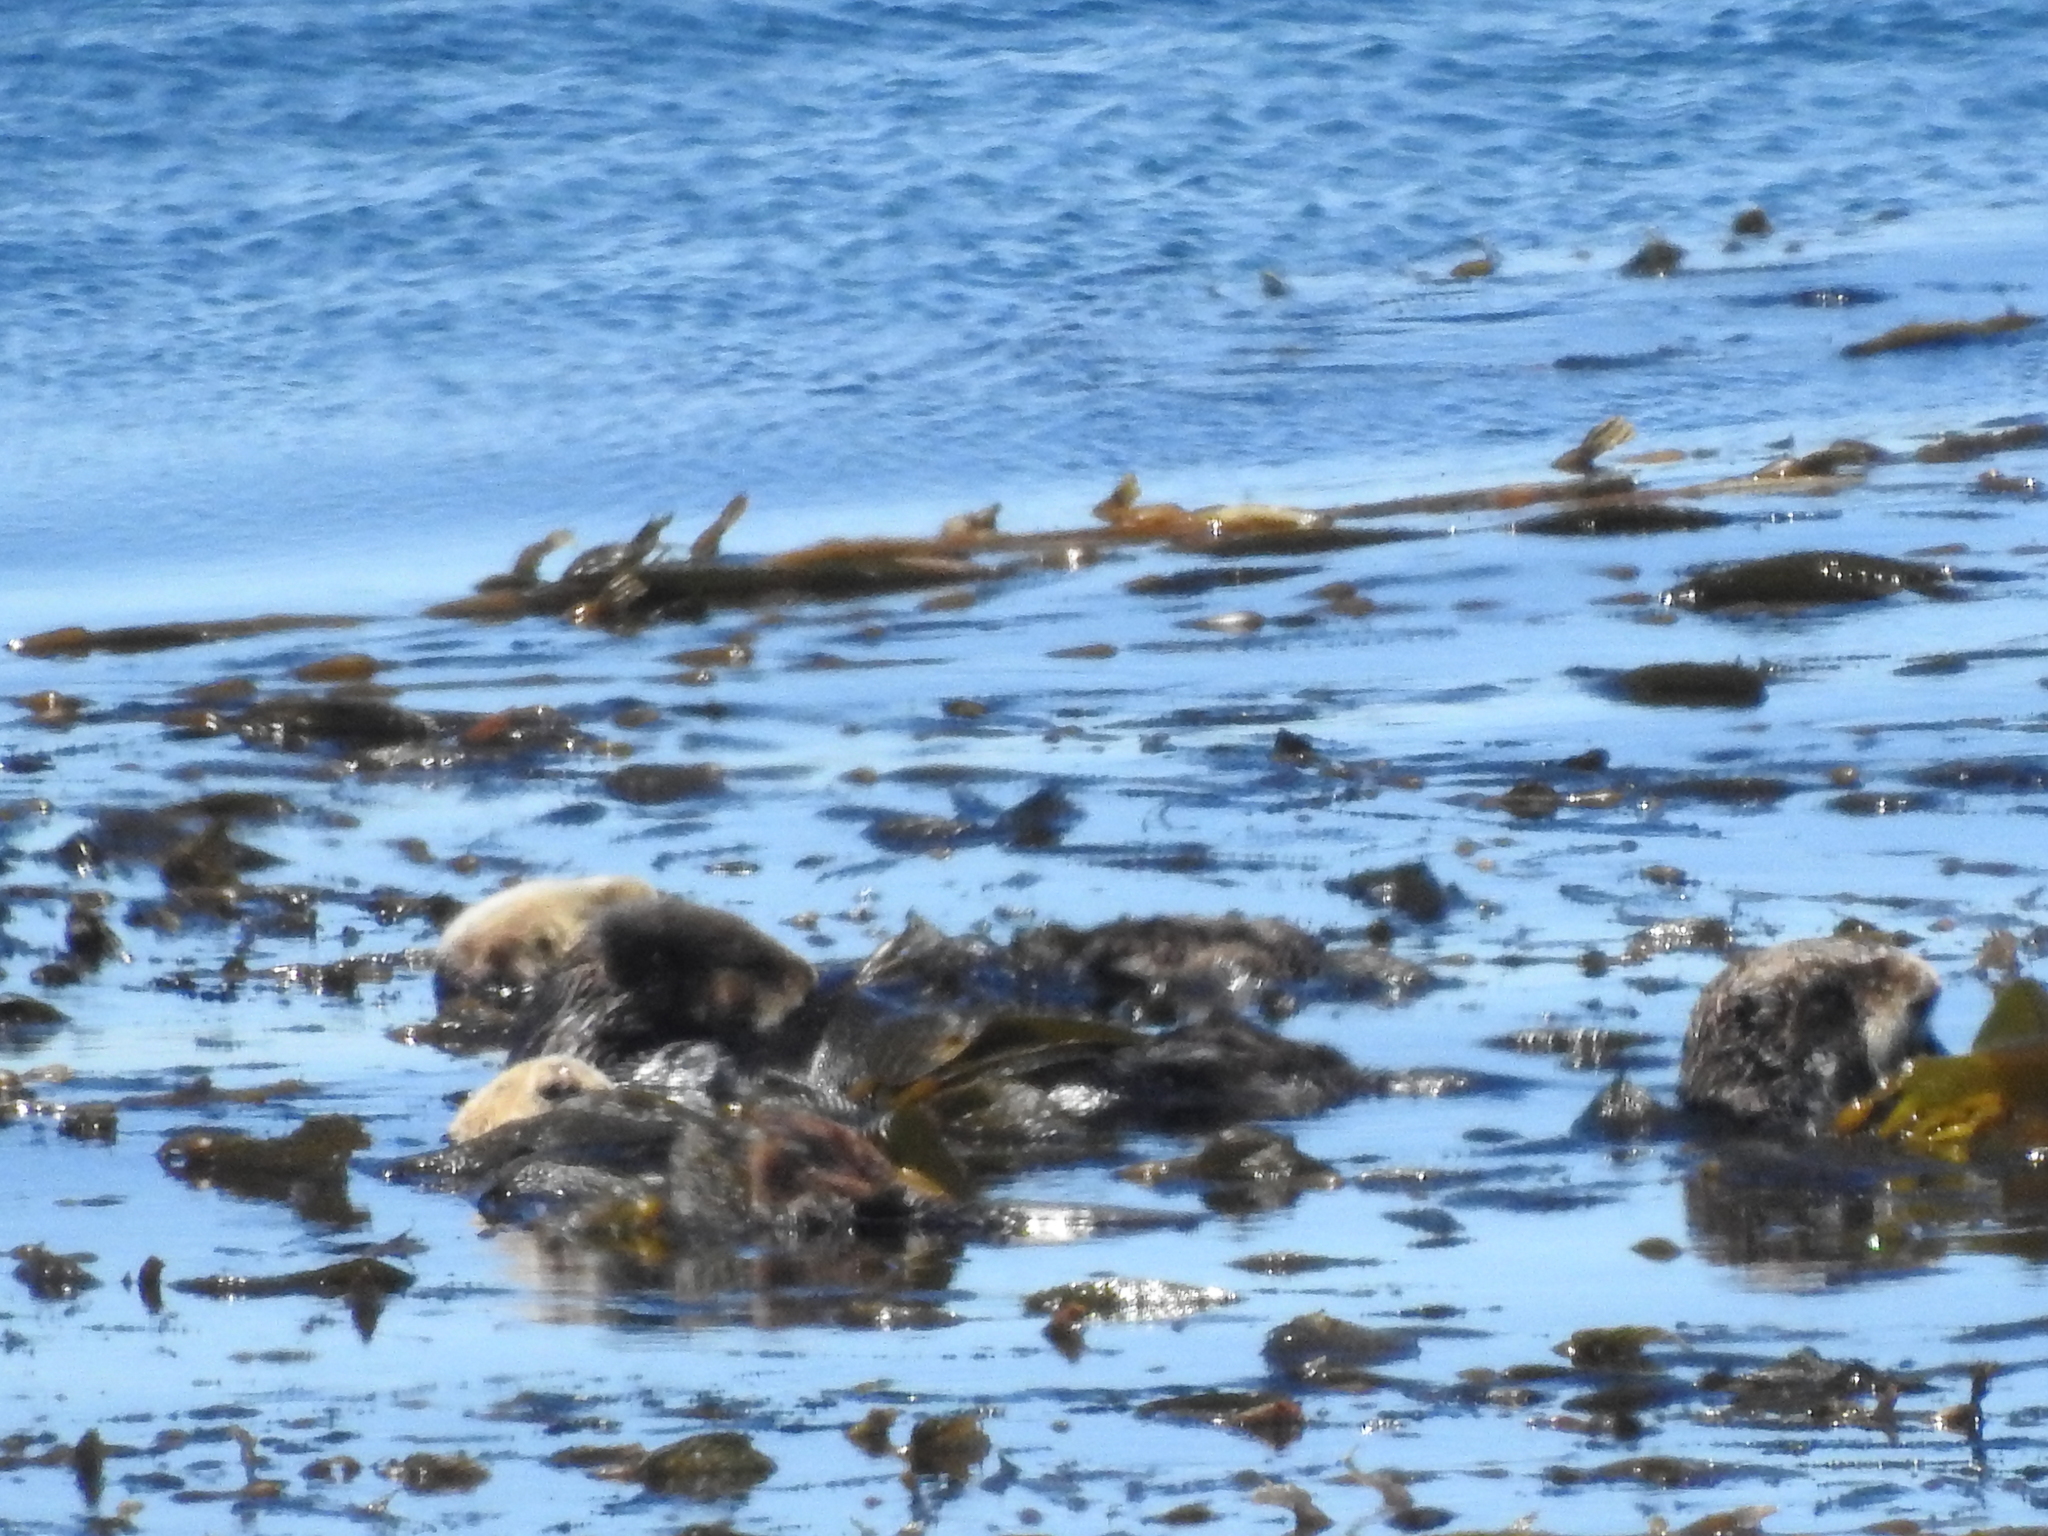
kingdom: Animalia
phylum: Chordata
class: Mammalia
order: Carnivora
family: Mustelidae
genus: Enhydra
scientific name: Enhydra lutris
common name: Sea otter
